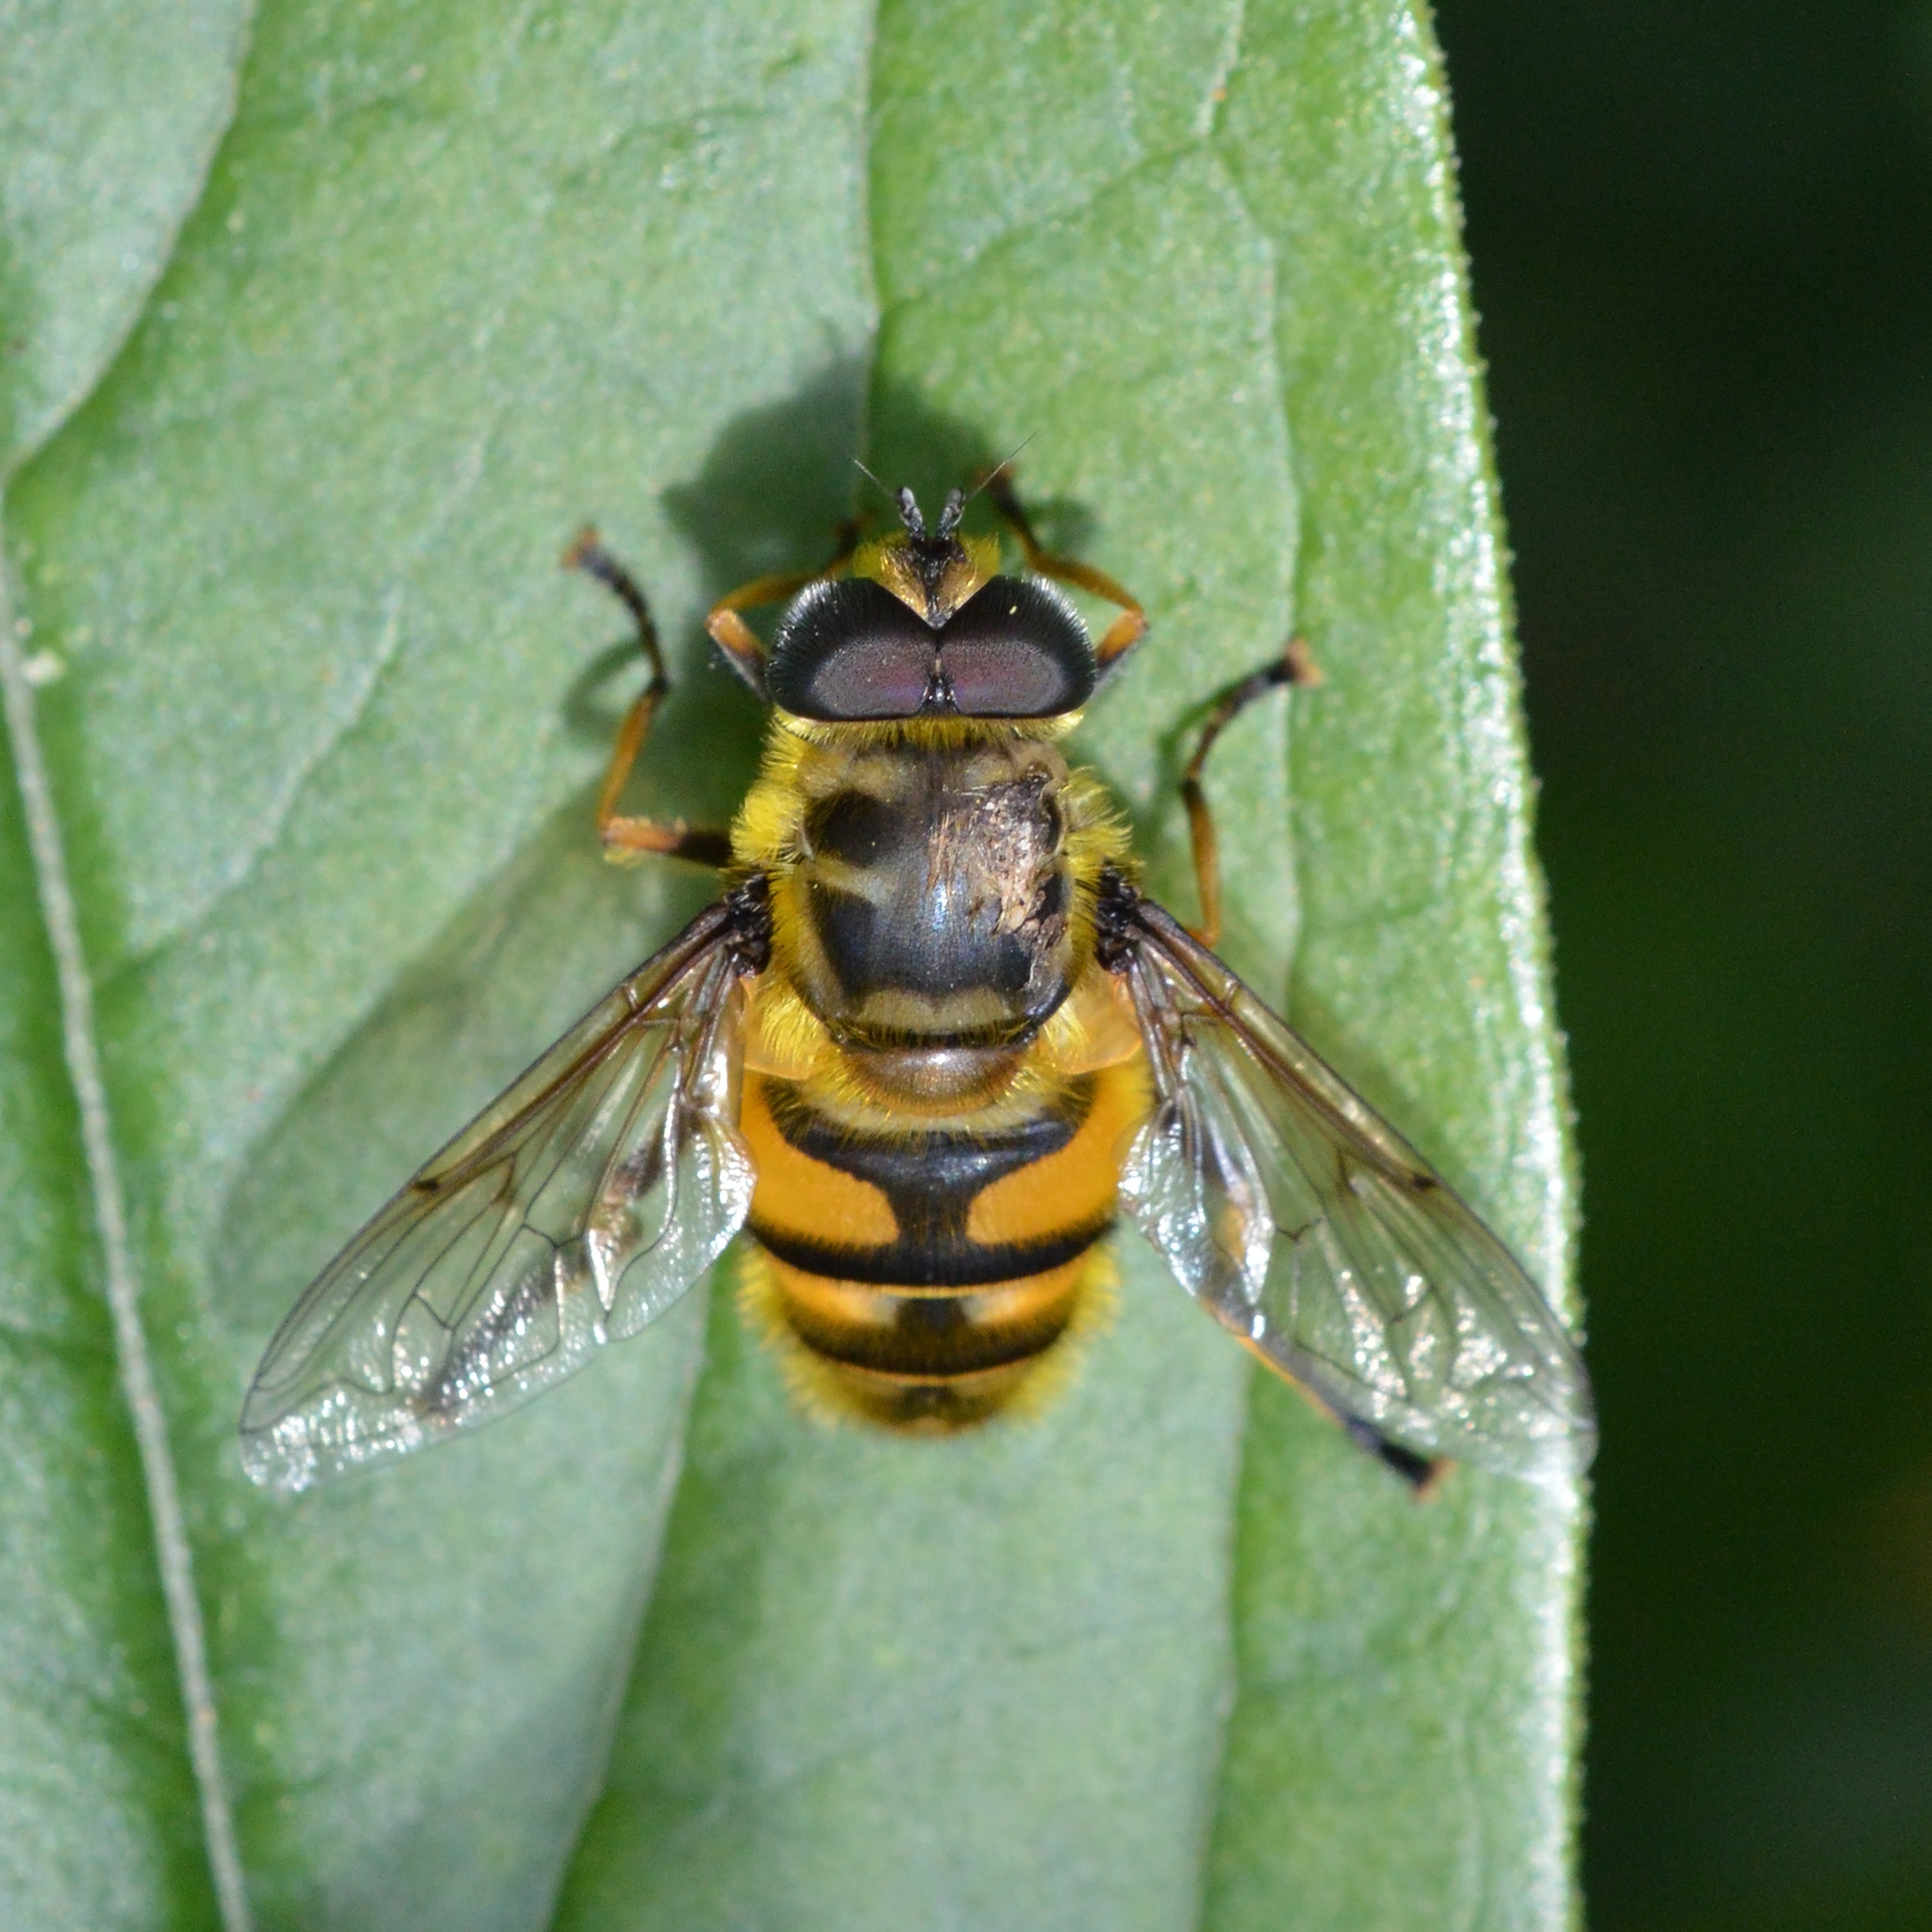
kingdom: Animalia
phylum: Arthropoda
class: Insecta
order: Diptera
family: Syrphidae
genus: Myathropa
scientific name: Myathropa florea
